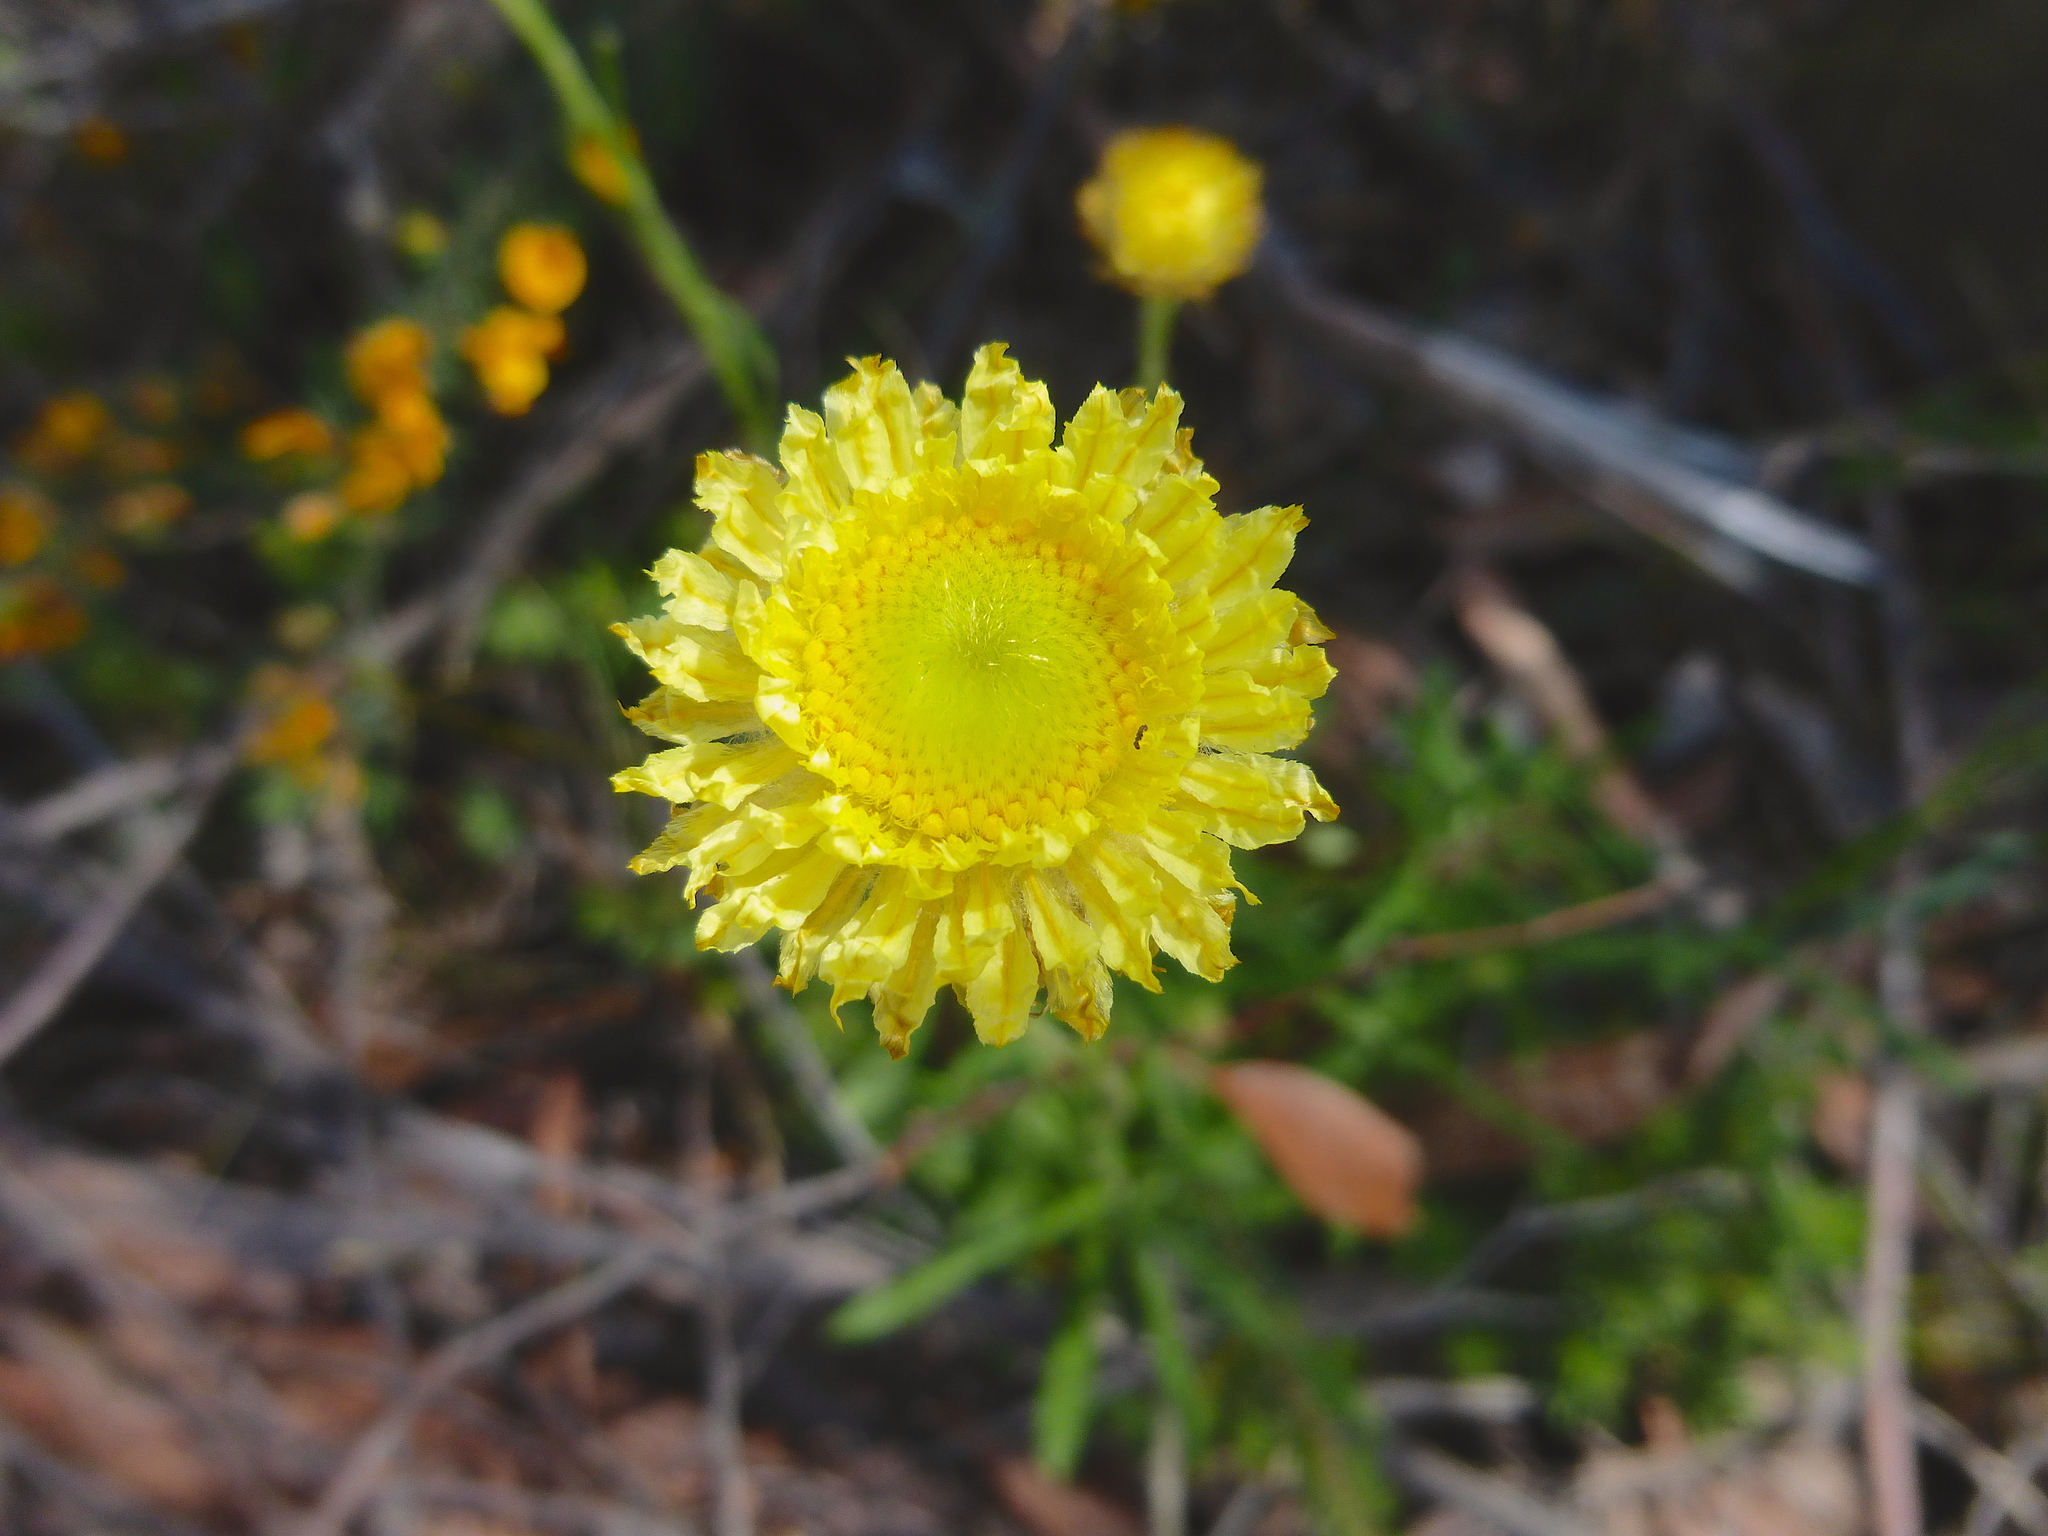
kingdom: Plantae
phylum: Tracheophyta
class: Magnoliopsida
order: Asterales
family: Asteraceae
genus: Coronidium
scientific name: Coronidium scorpioides
